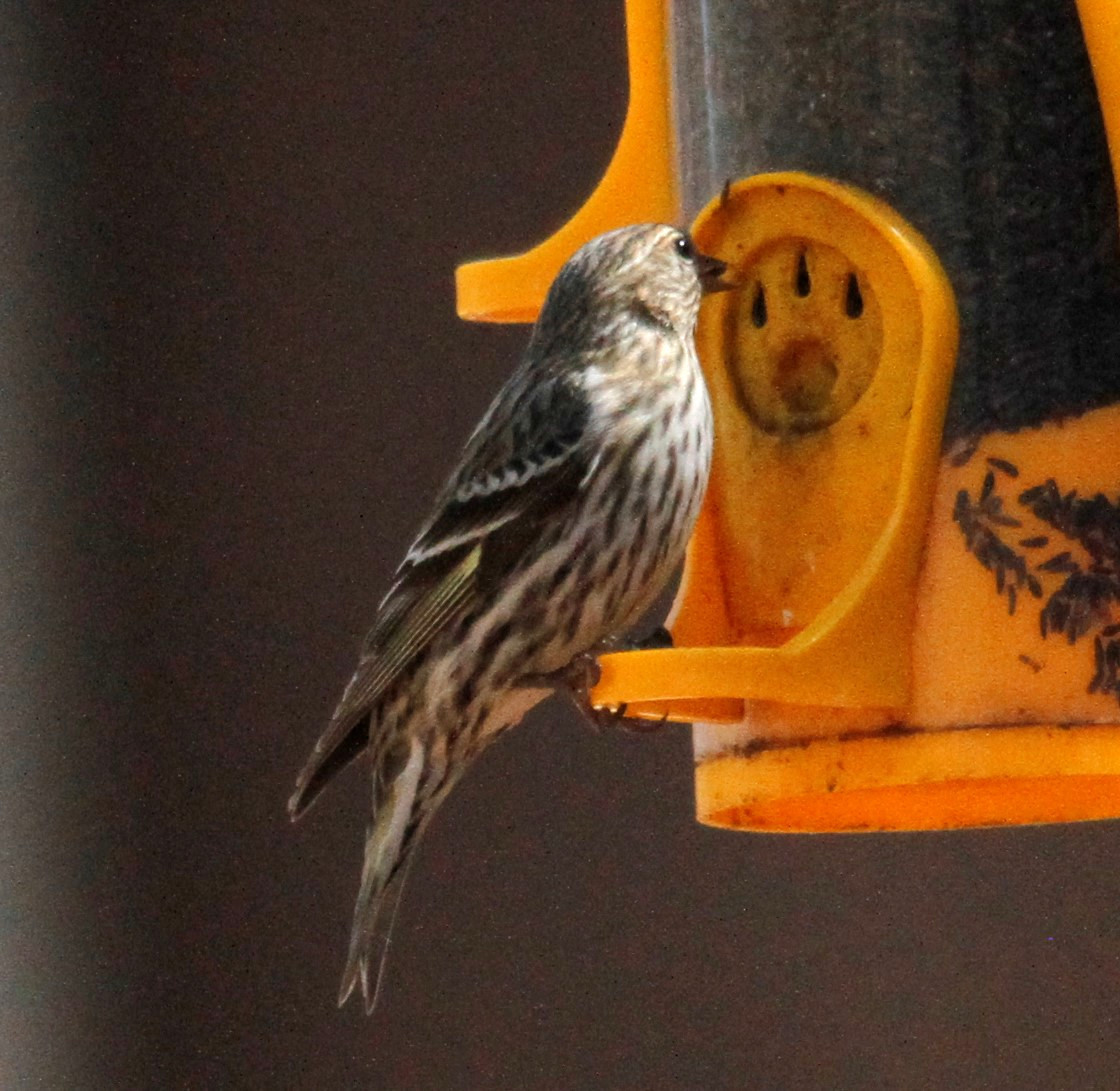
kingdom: Animalia
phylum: Chordata
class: Aves
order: Passeriformes
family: Fringillidae
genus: Spinus
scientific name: Spinus pinus
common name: Pine siskin
